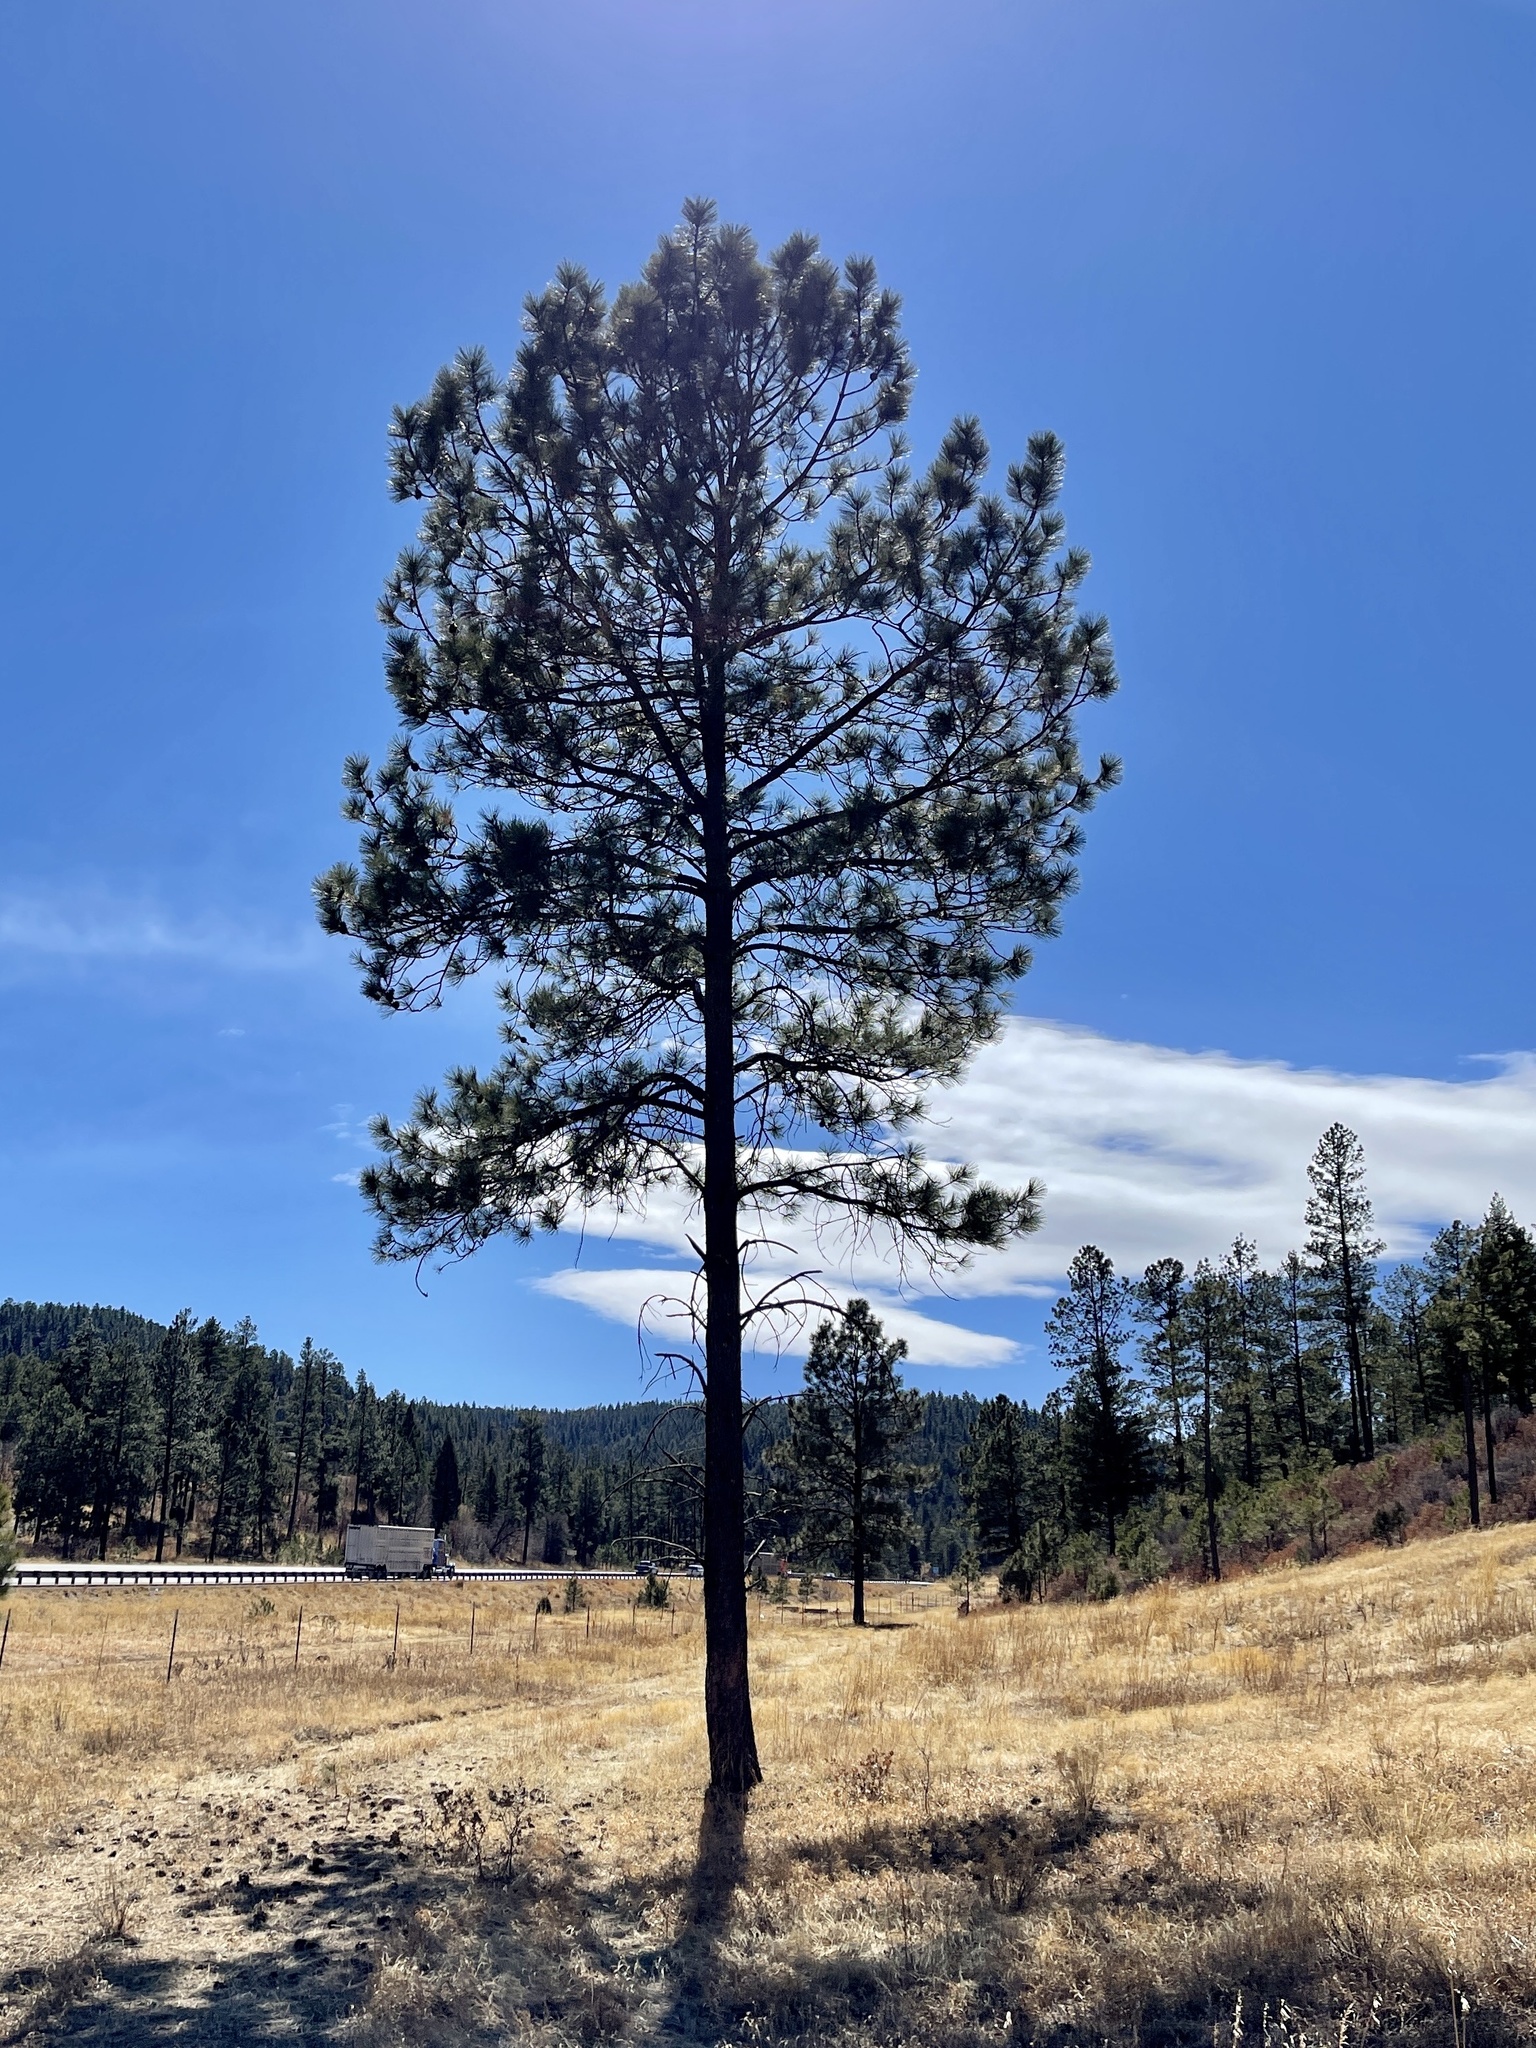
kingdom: Plantae
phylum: Tracheophyta
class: Pinopsida
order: Pinales
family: Pinaceae
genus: Pinus
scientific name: Pinus ponderosa
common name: Western yellow-pine
